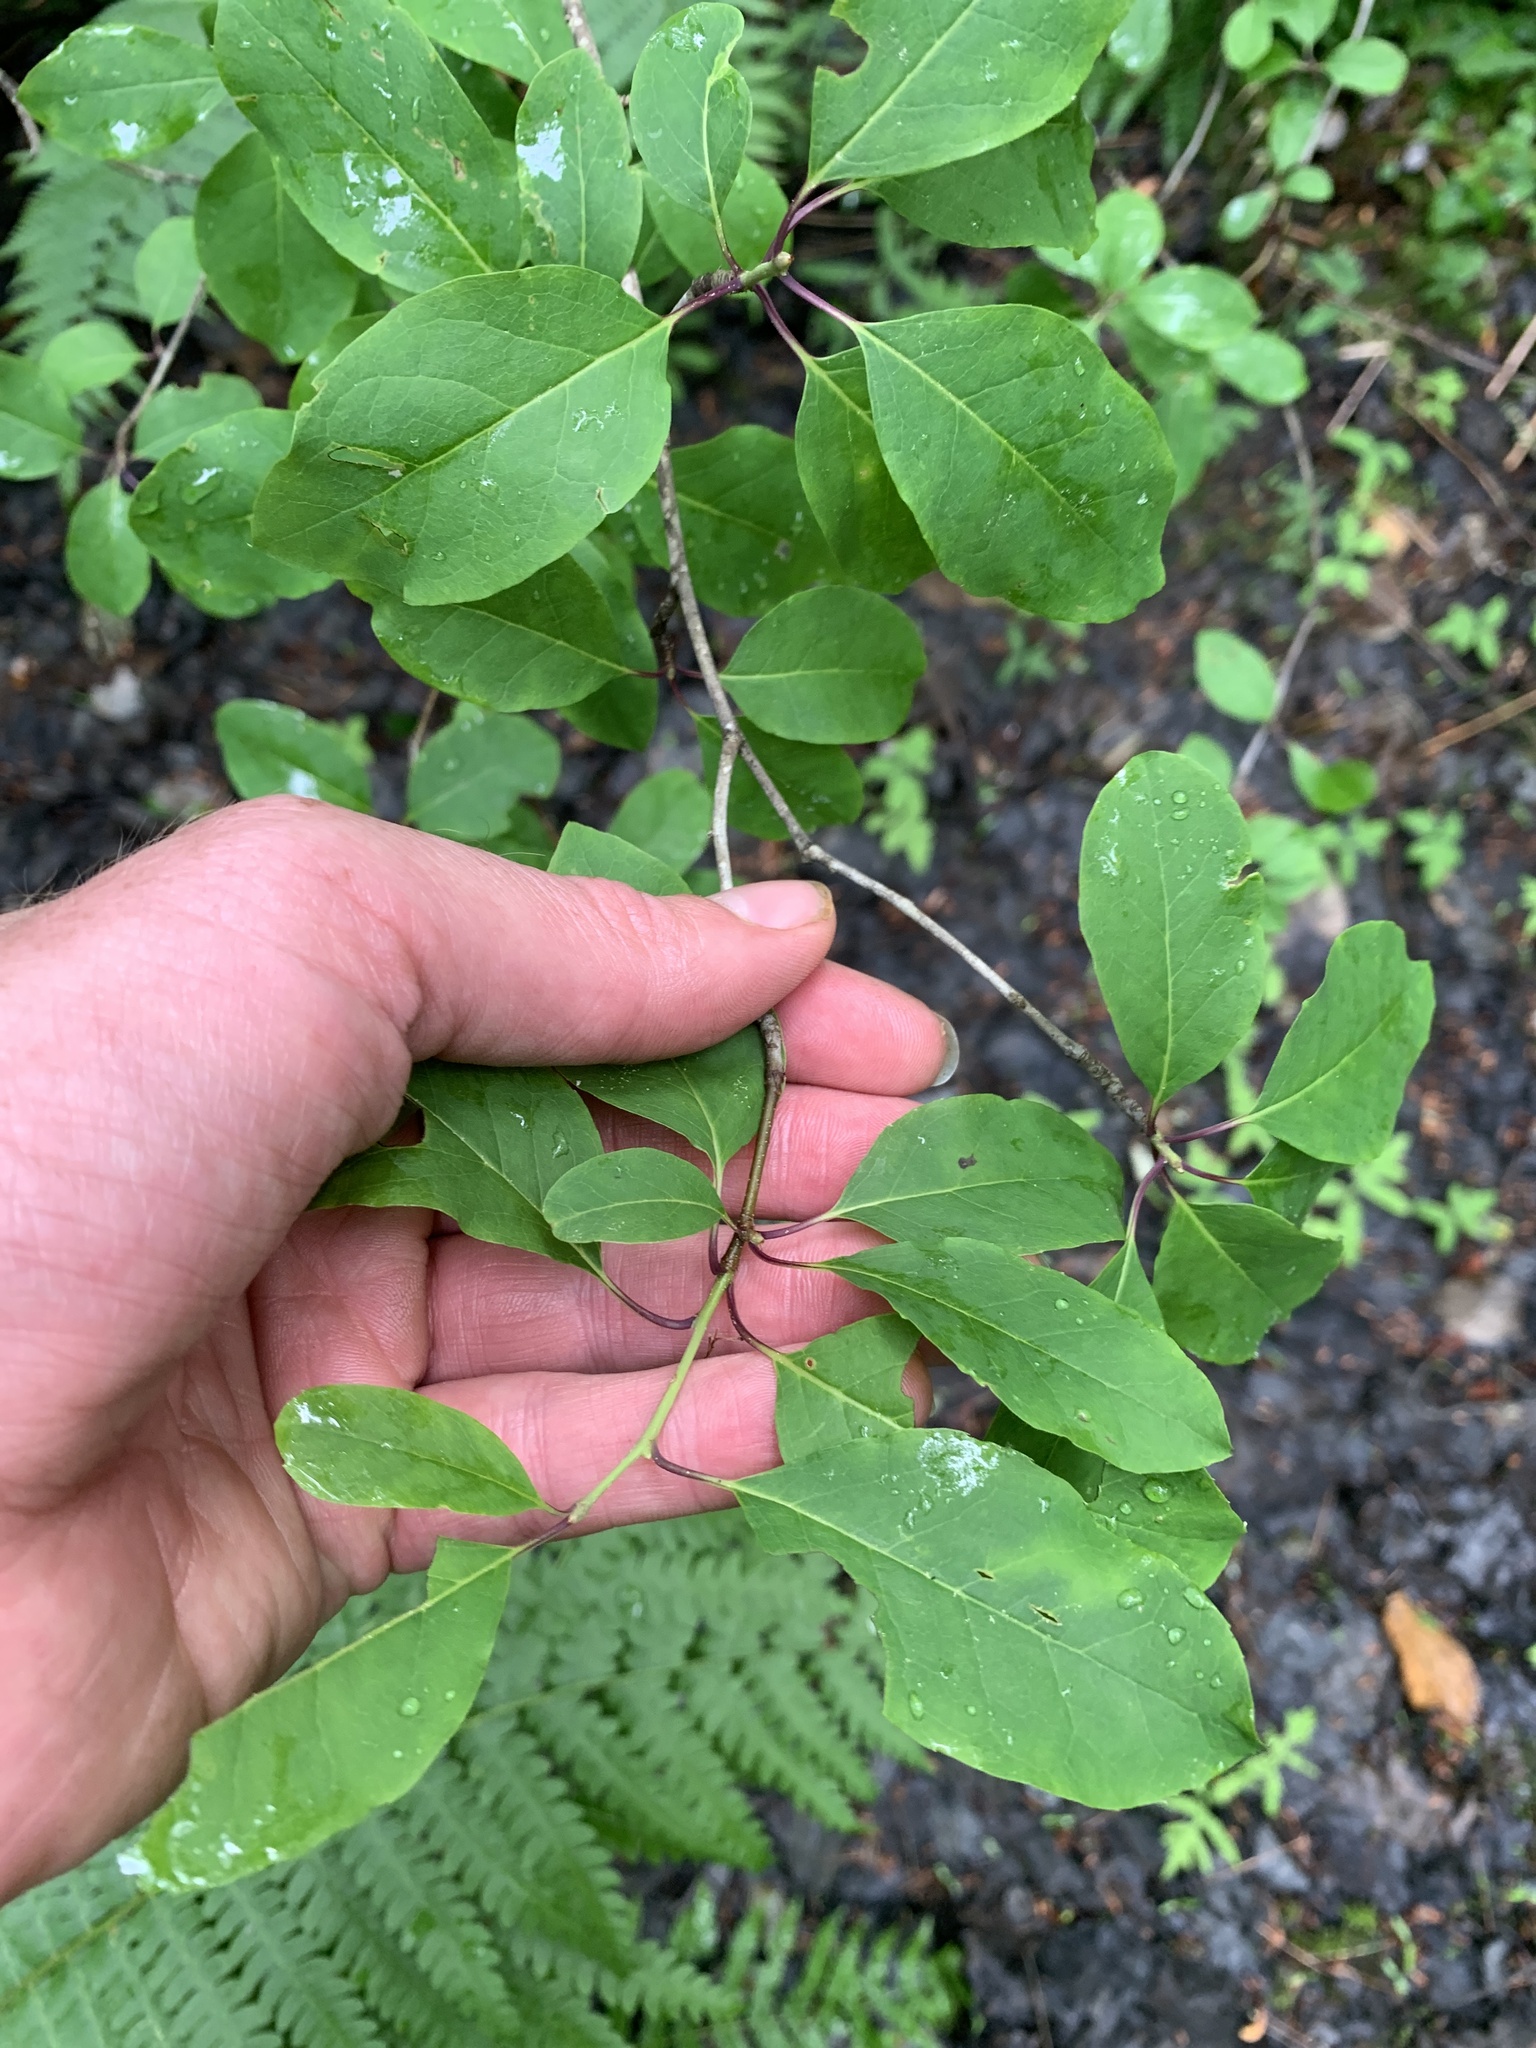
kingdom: Plantae
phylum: Tracheophyta
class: Magnoliopsida
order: Aquifoliales
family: Aquifoliaceae
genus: Ilex
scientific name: Ilex mucronata
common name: Catberry
